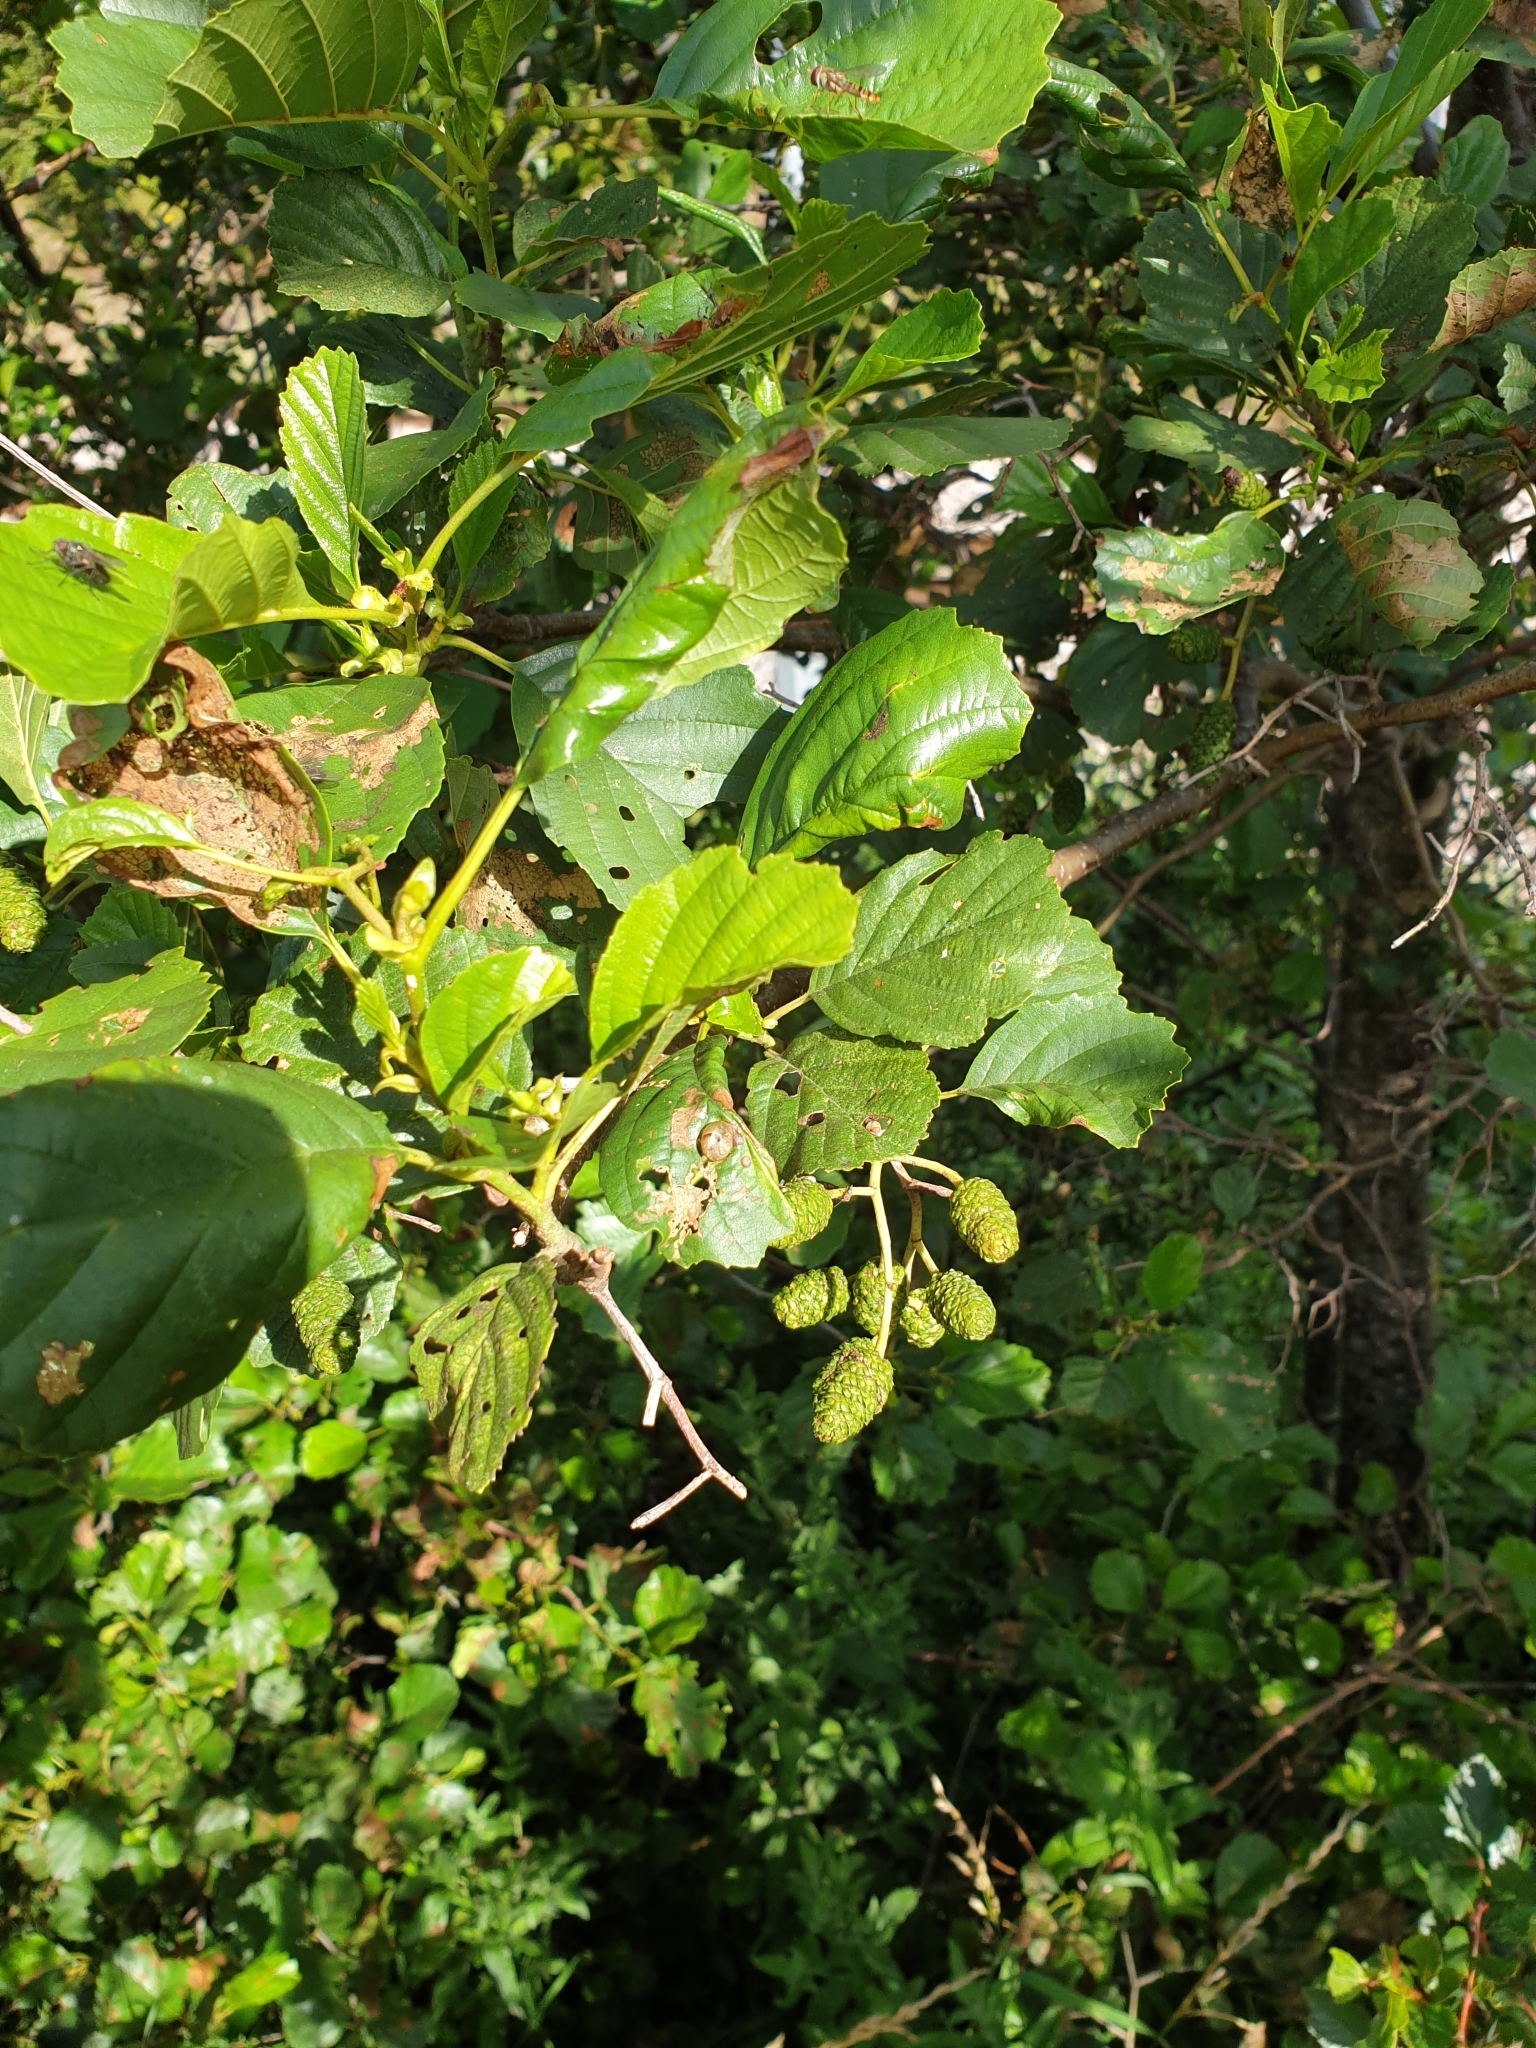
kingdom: Plantae
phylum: Tracheophyta
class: Magnoliopsida
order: Fagales
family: Betulaceae
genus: Alnus
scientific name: Alnus glutinosa
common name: Black alder
